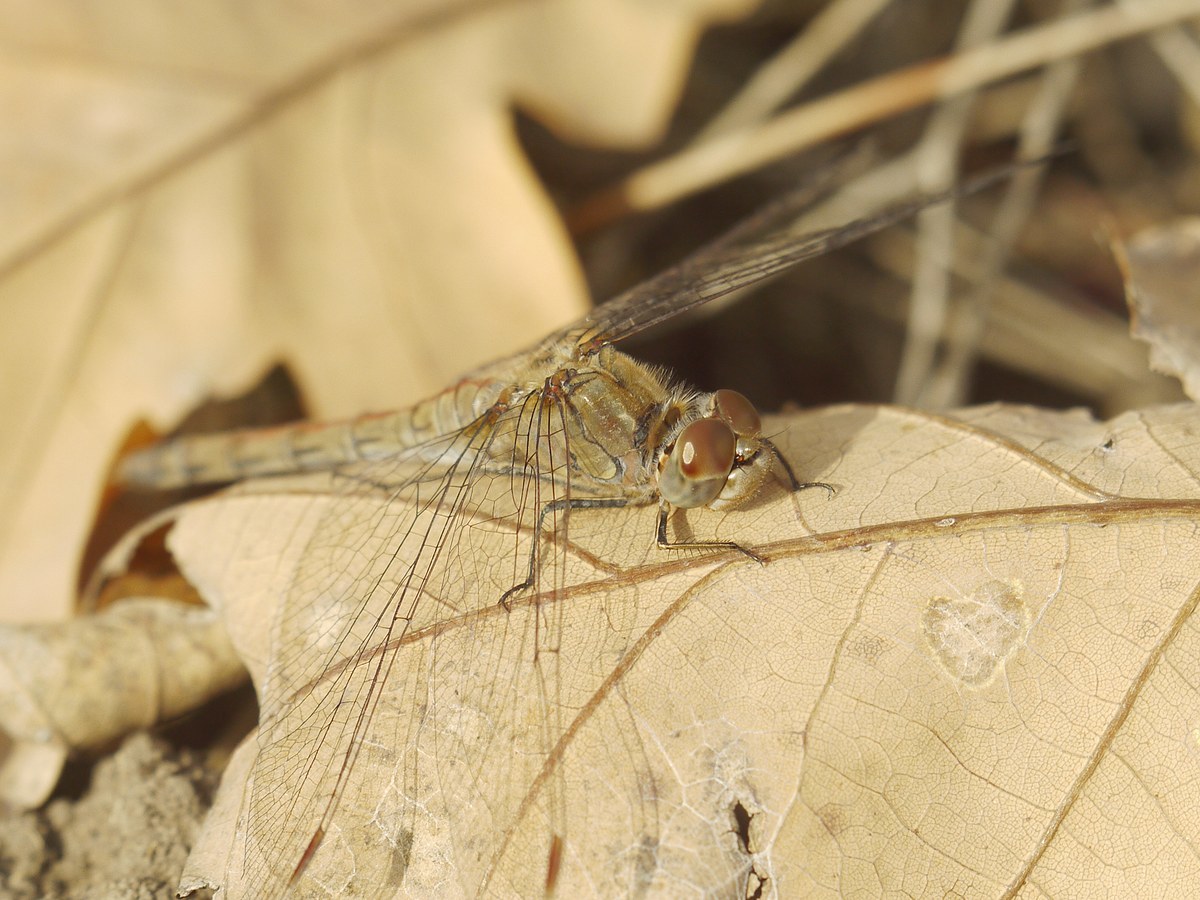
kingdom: Animalia
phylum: Arthropoda
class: Insecta
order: Odonata
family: Libellulidae
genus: Sympetrum
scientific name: Sympetrum striolatum
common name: Common darter
